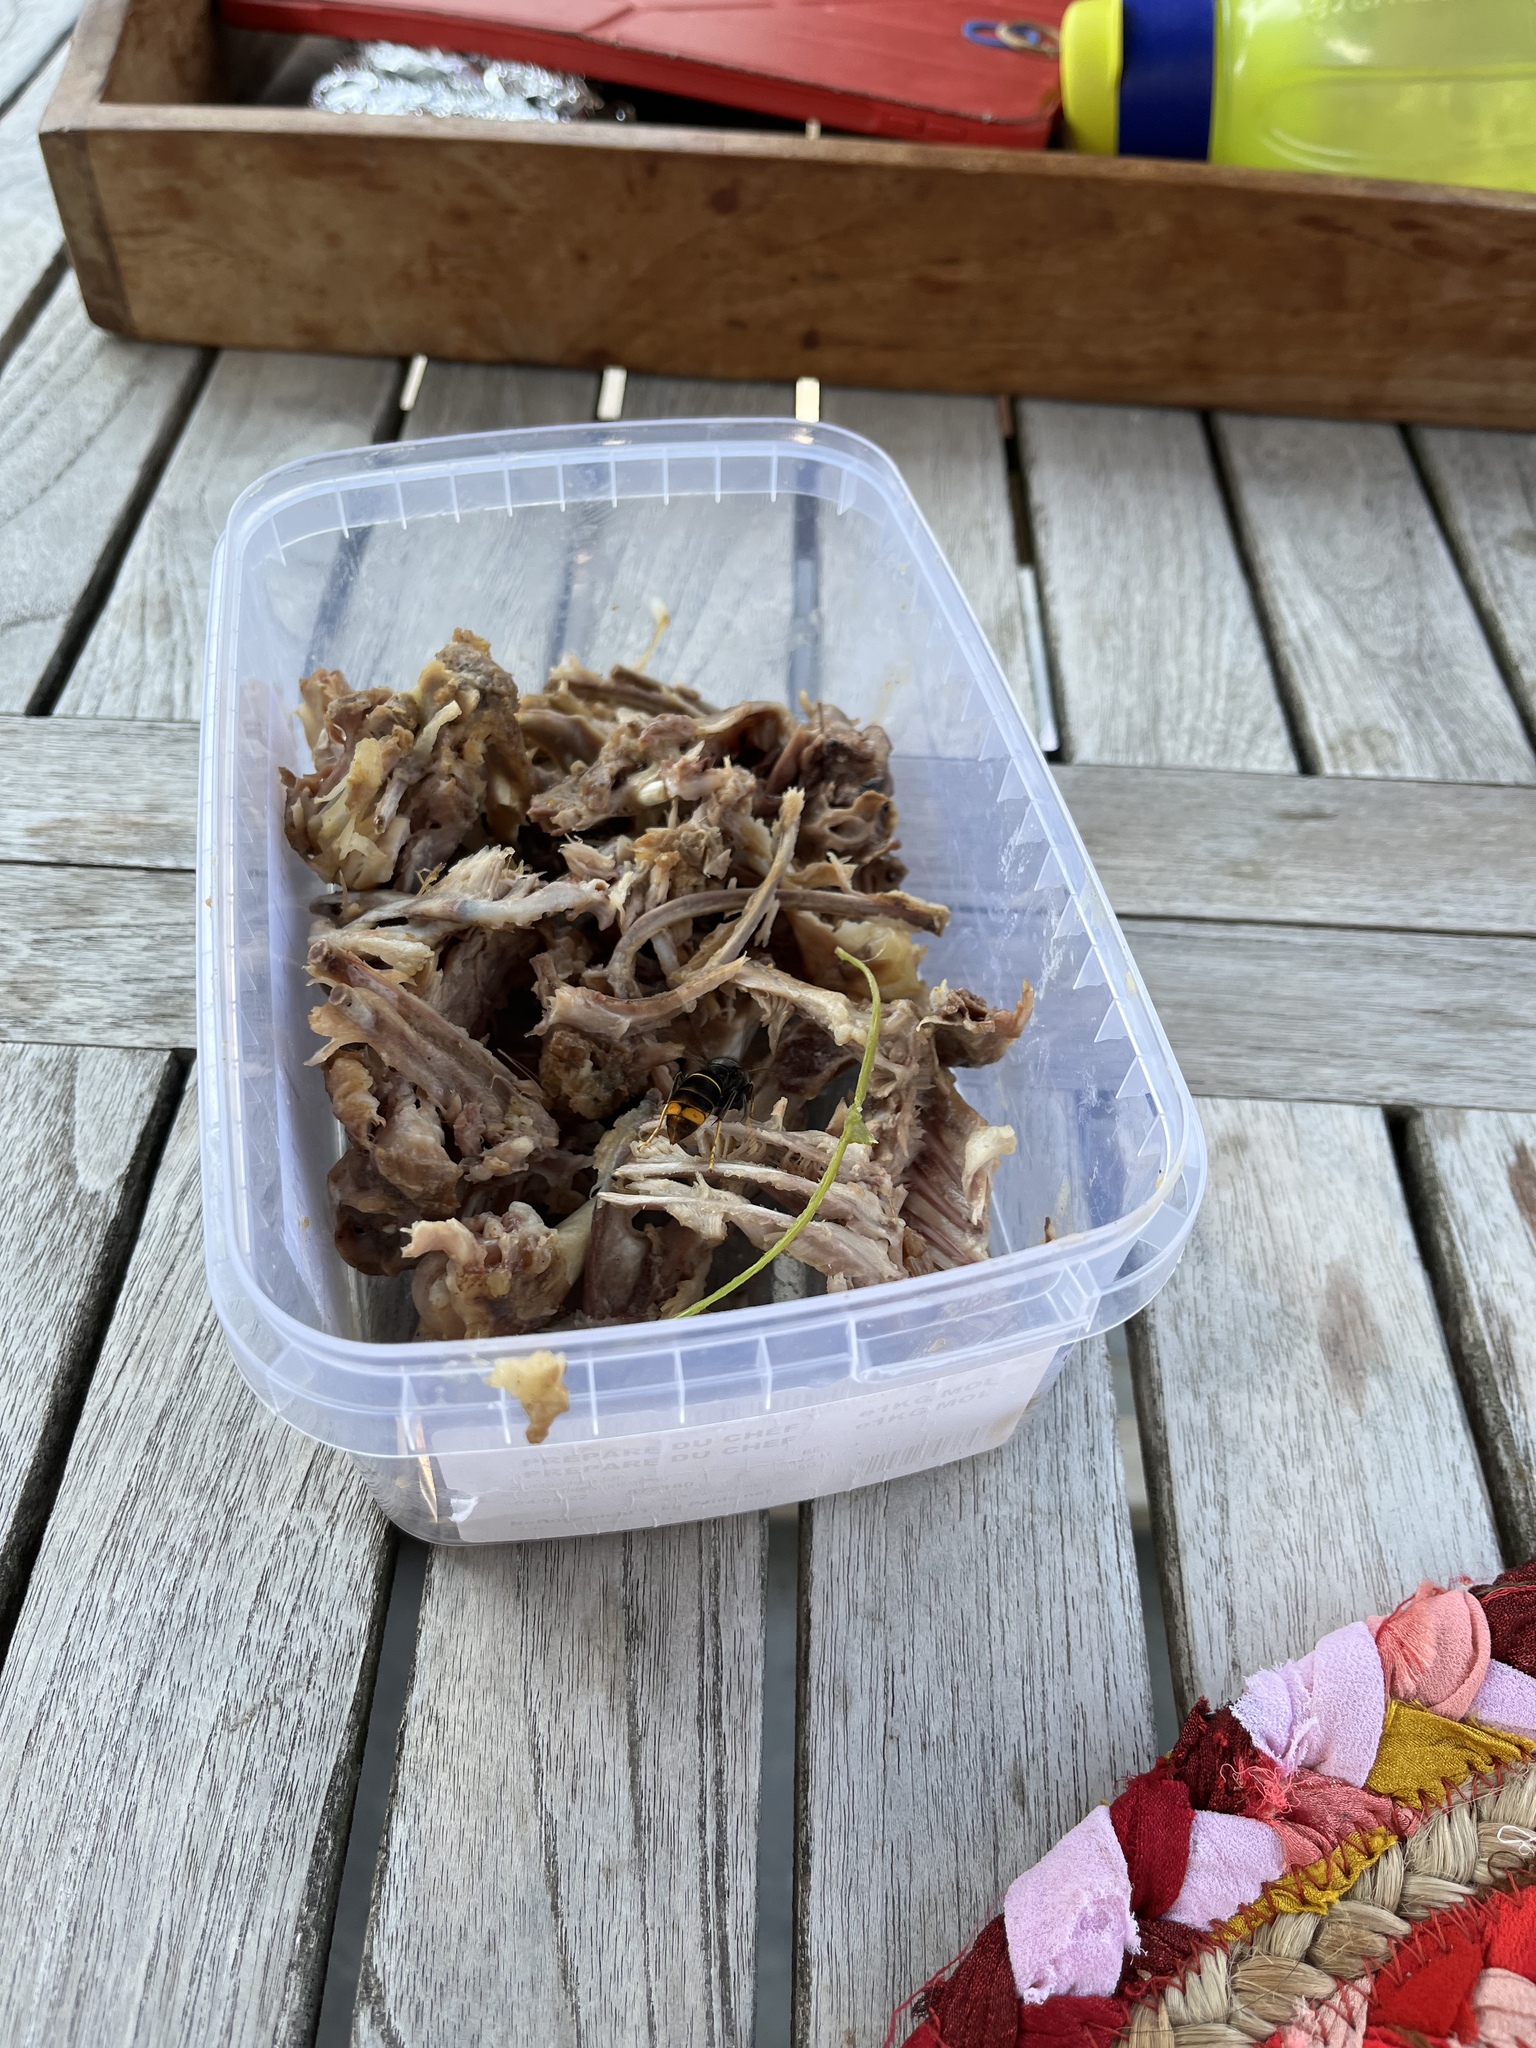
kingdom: Animalia
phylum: Arthropoda
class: Insecta
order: Hymenoptera
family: Vespidae
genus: Vespa
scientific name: Vespa velutina
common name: Asian hornet
